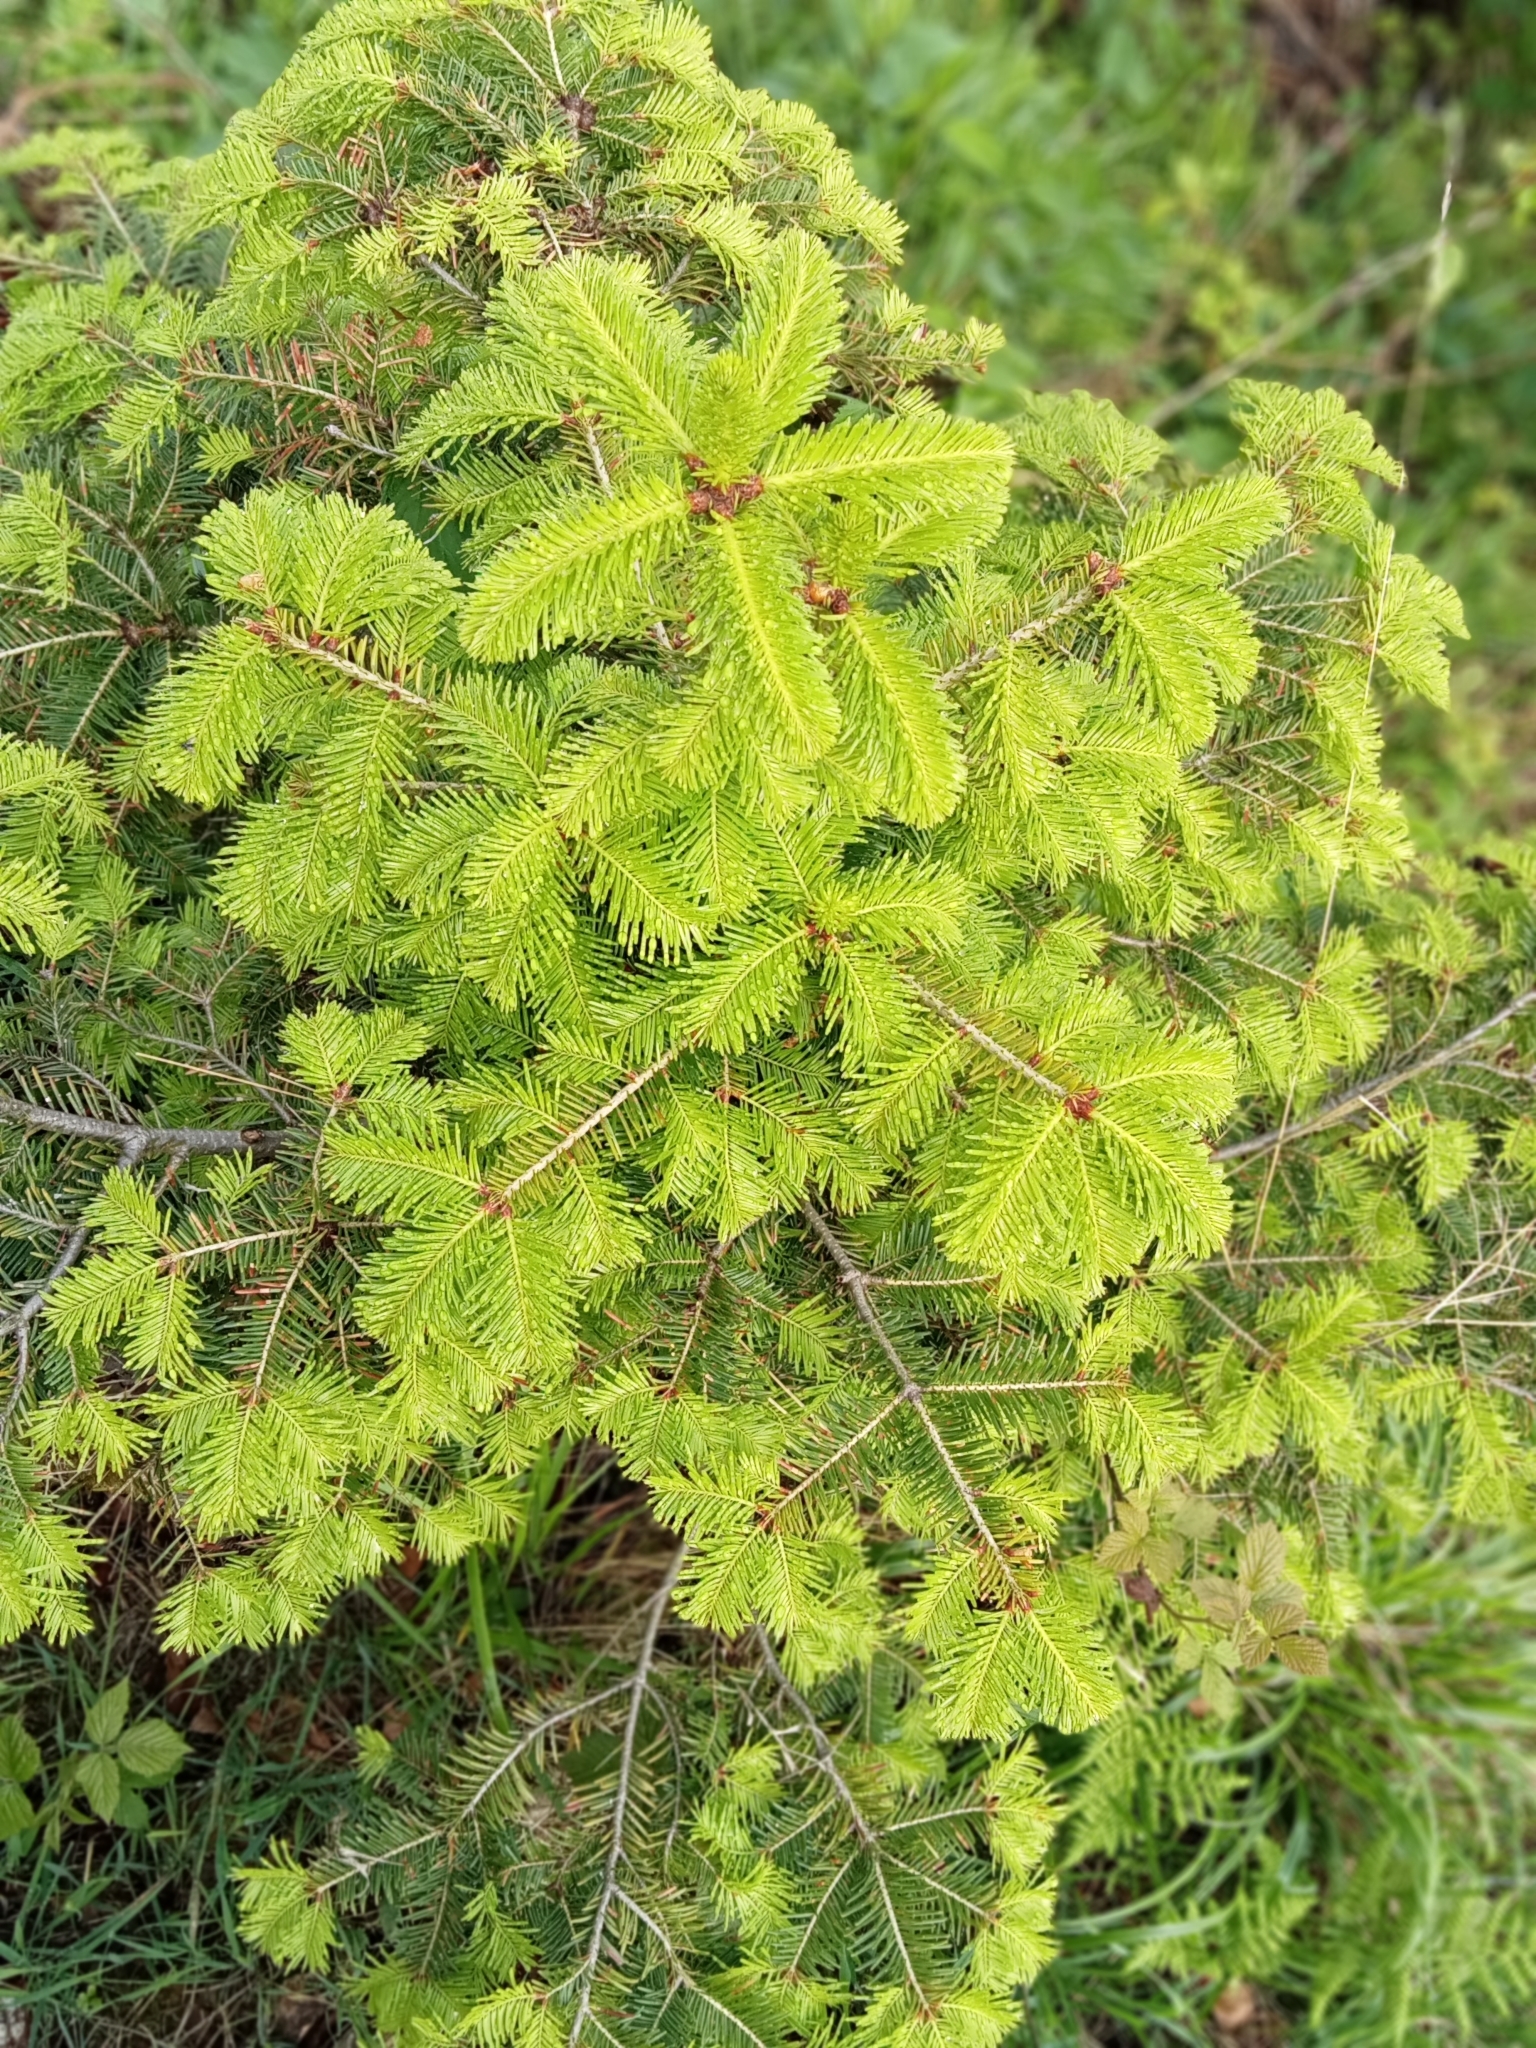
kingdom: Plantae
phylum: Tracheophyta
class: Pinopsida
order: Pinales
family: Pinaceae
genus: Abies
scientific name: Abies alba
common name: Silver fir
